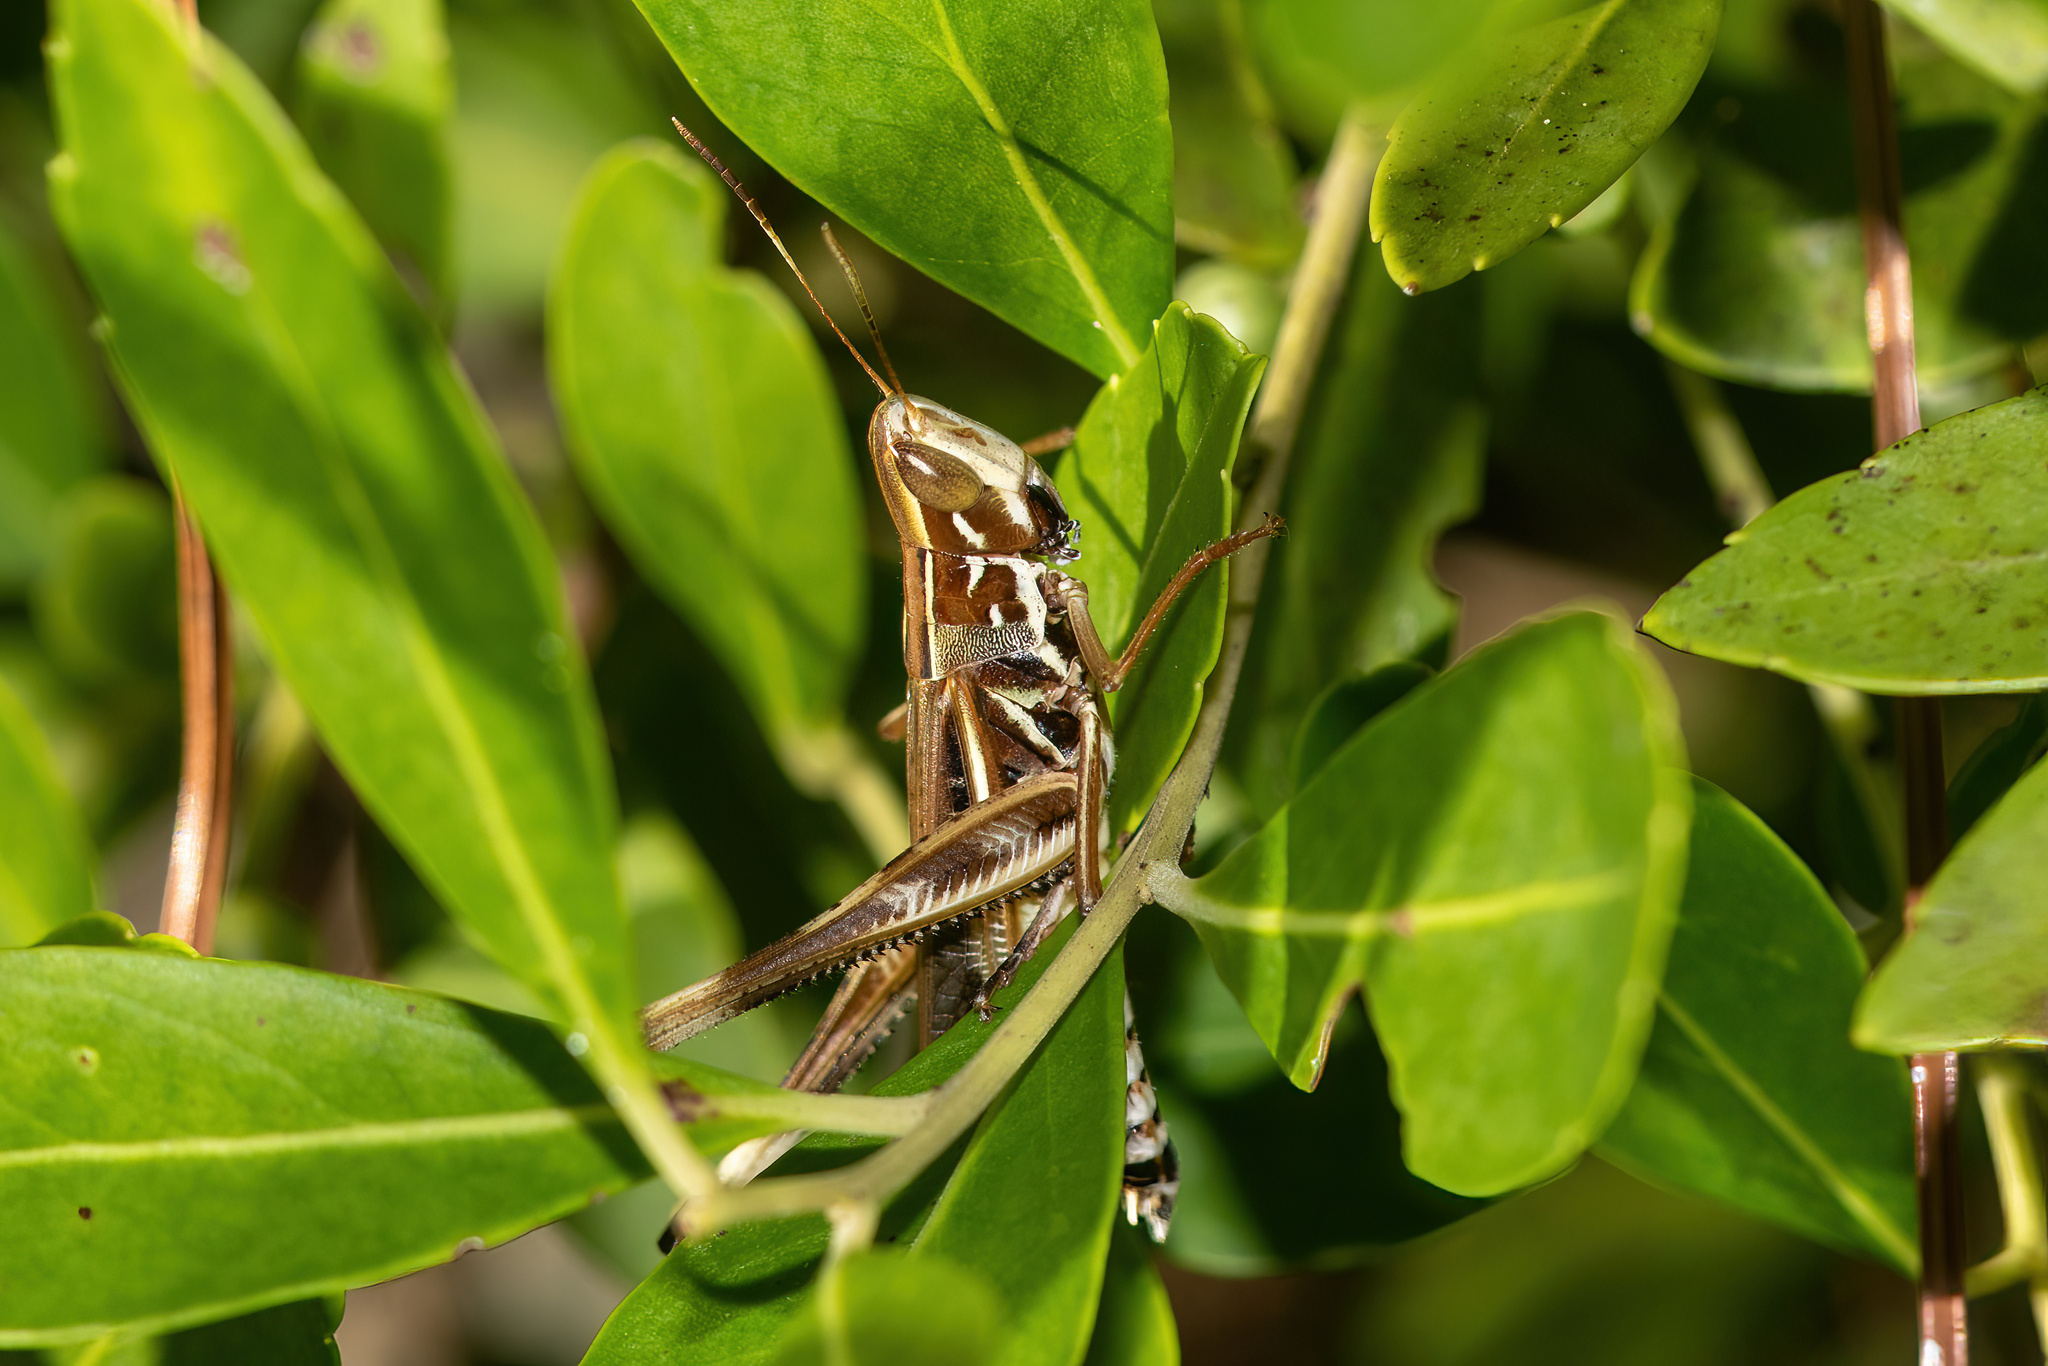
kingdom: Animalia
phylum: Arthropoda
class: Insecta
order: Orthoptera
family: Acrididae
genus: Syrbula
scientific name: Syrbula admirabilis
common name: Handsome grasshopper
